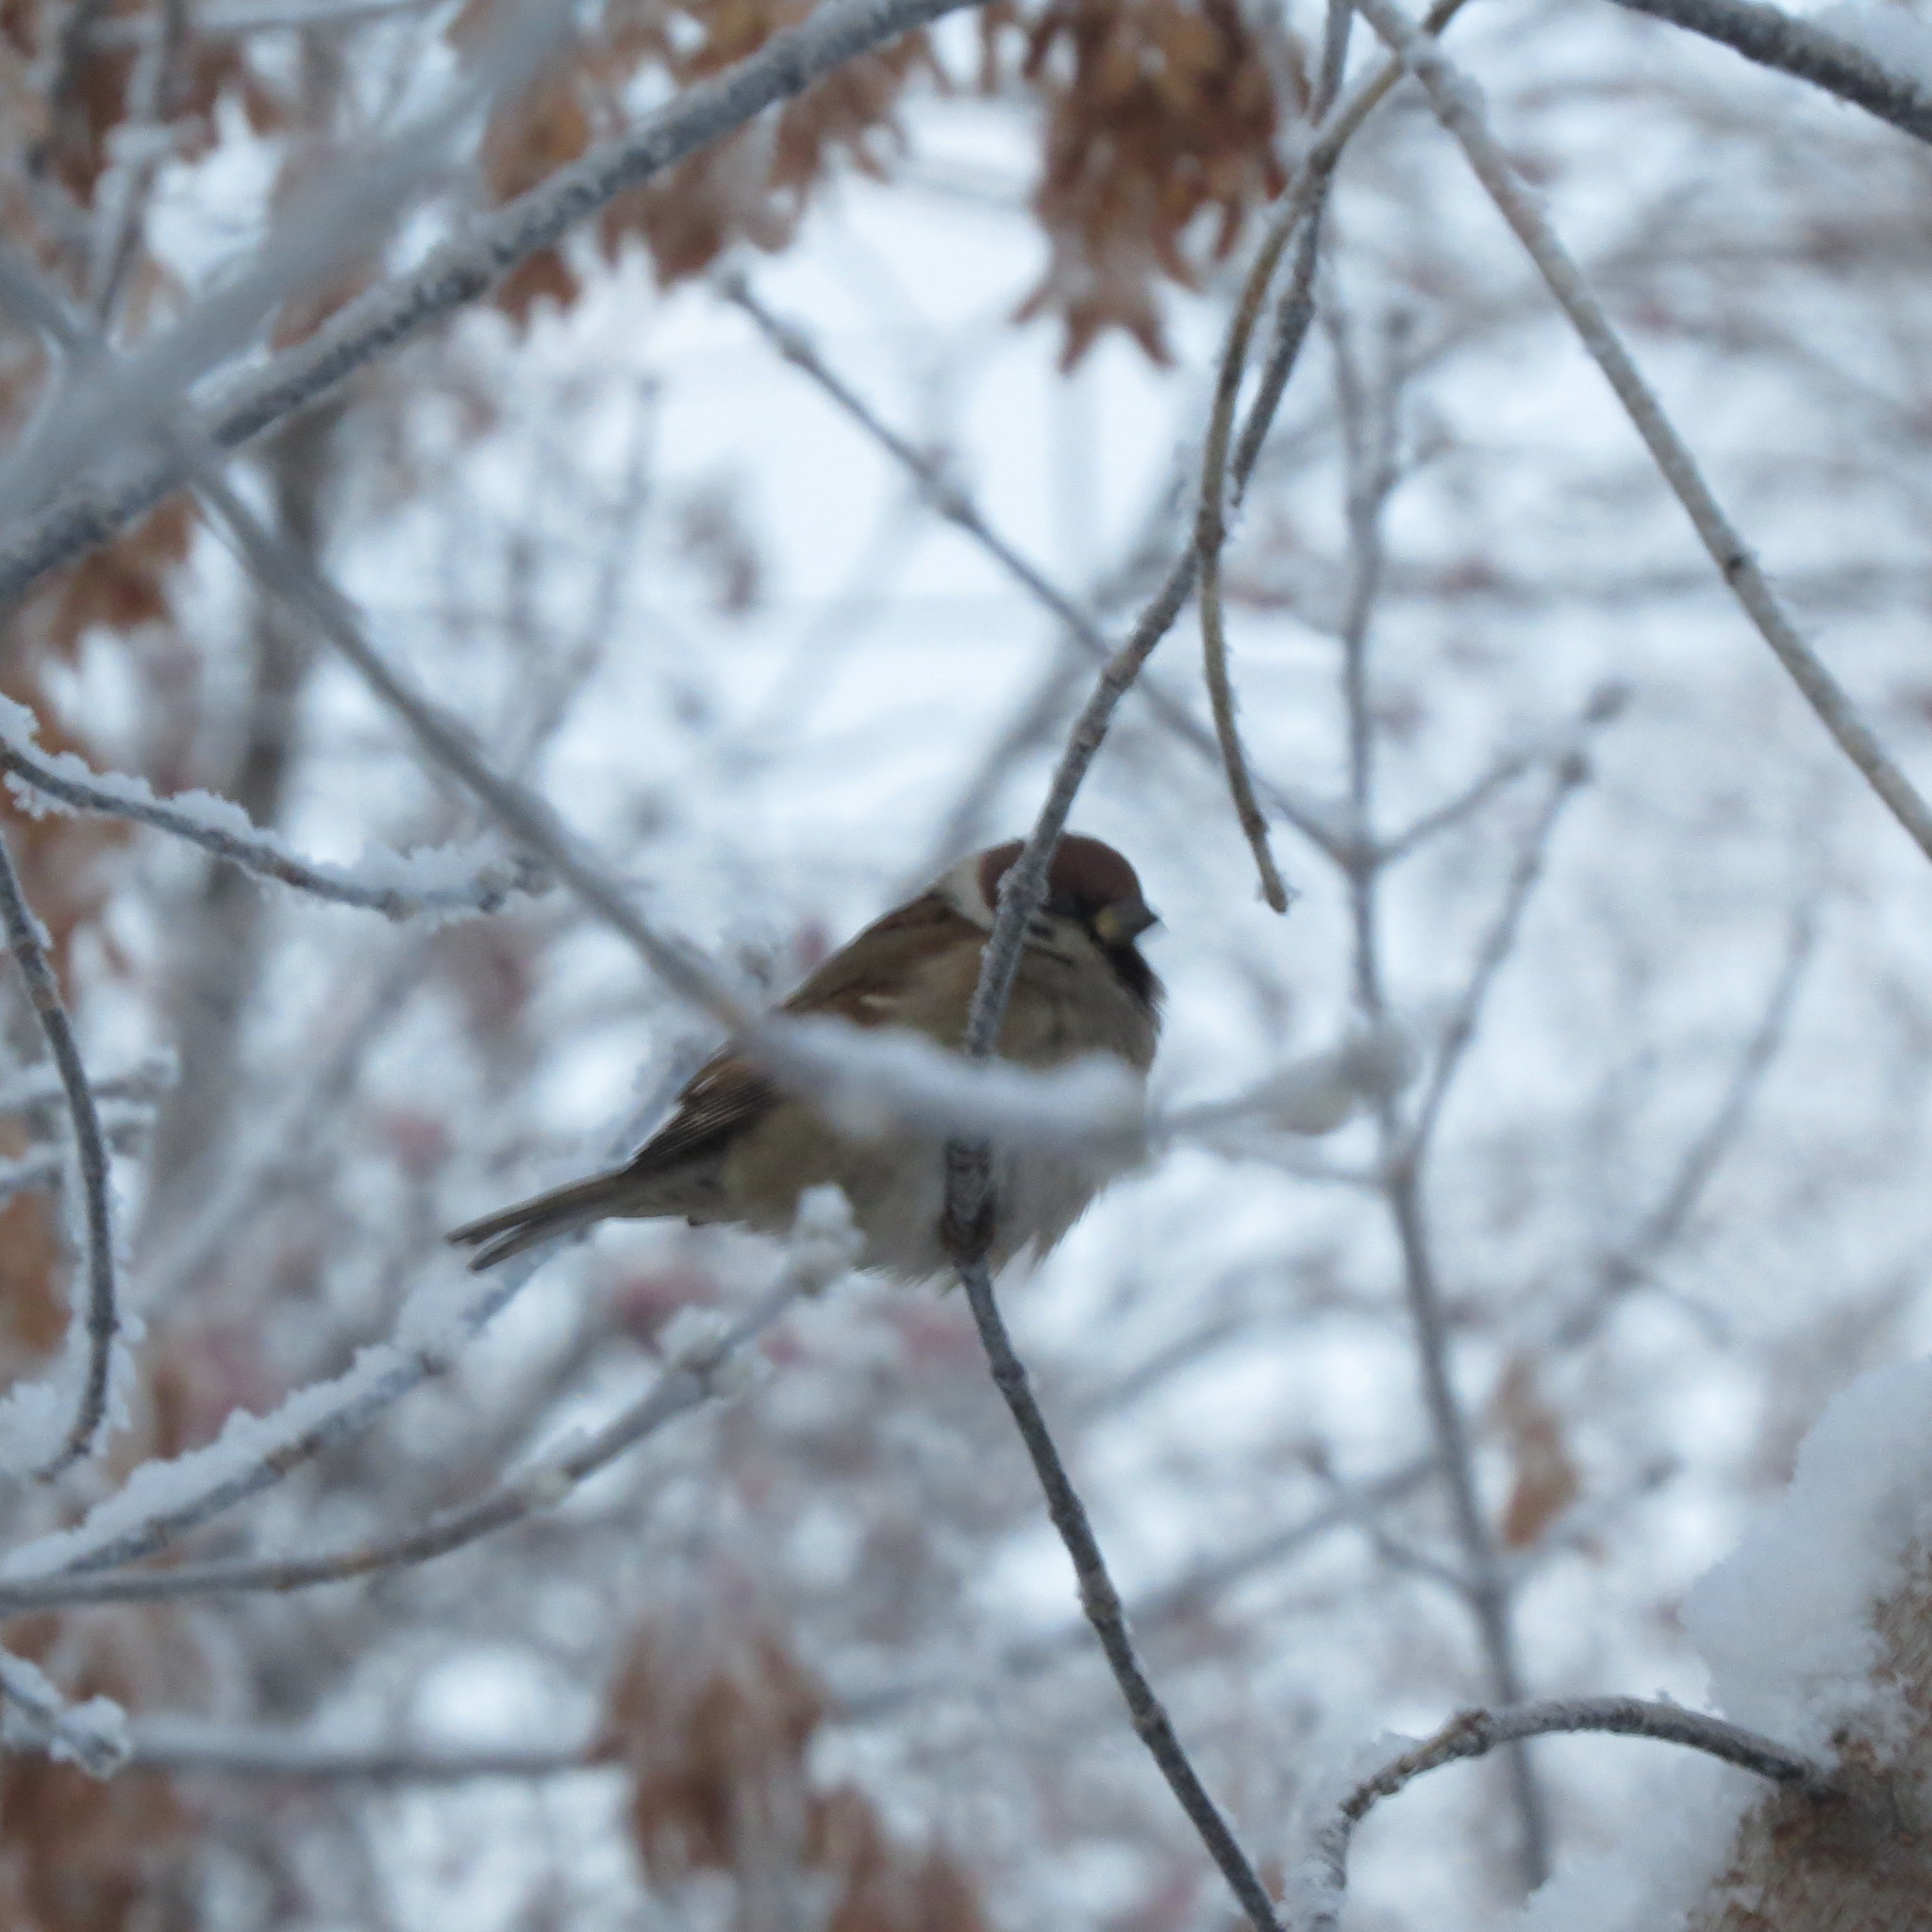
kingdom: Animalia
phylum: Chordata
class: Aves
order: Passeriformes
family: Passeridae
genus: Passer
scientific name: Passer montanus
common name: Eurasian tree sparrow
